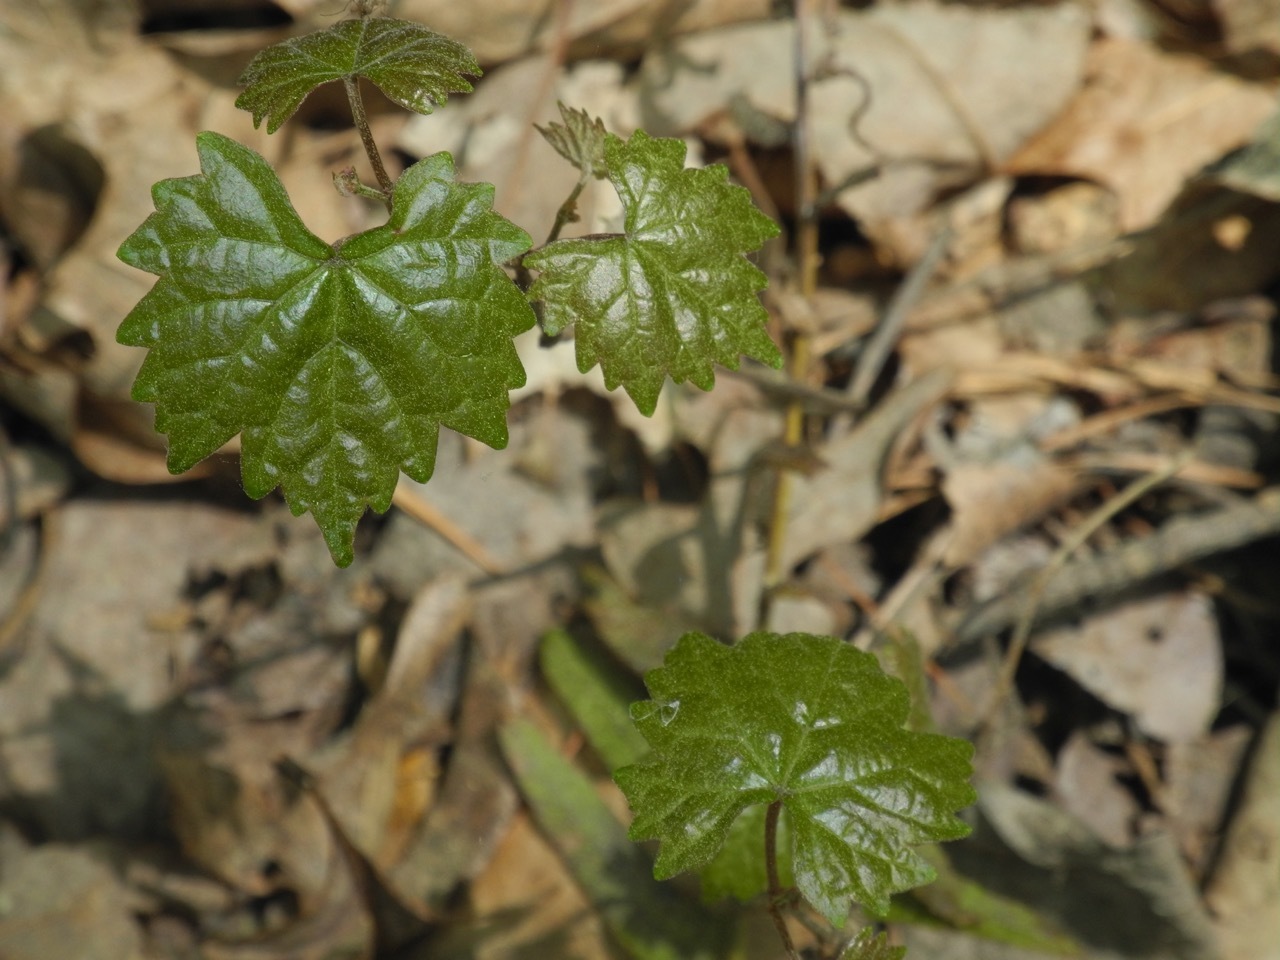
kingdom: Plantae
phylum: Tracheophyta
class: Magnoliopsida
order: Vitales
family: Vitaceae
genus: Vitis
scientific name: Vitis rotundifolia
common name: Muscadine grape
